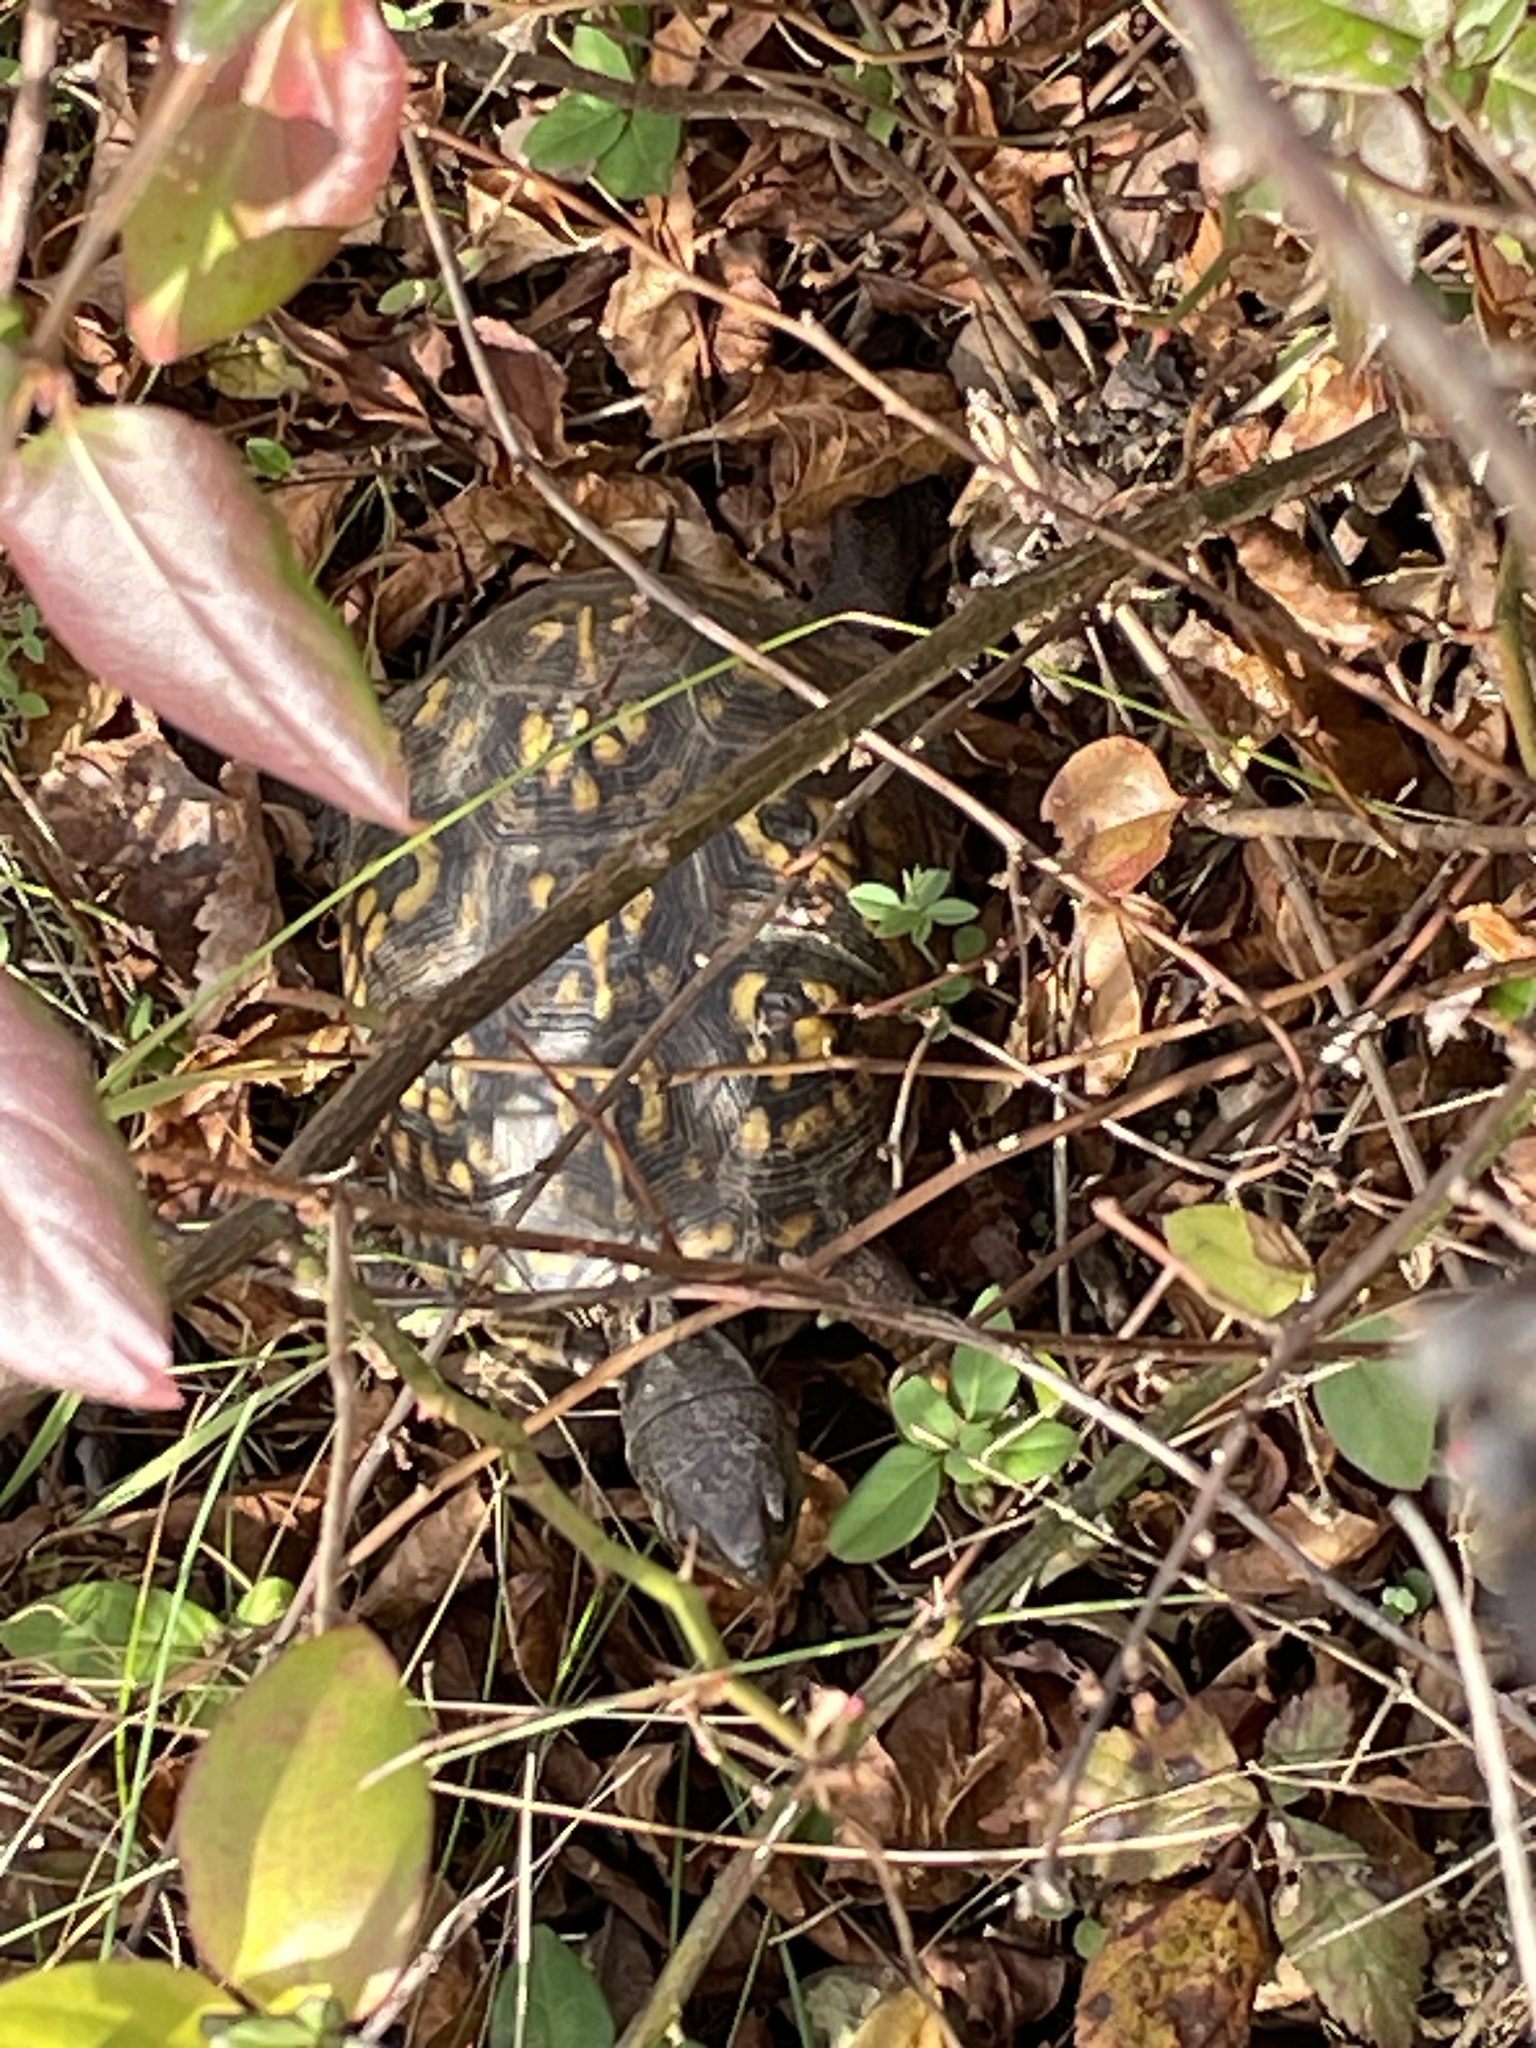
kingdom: Animalia
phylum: Chordata
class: Testudines
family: Emydidae
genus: Terrapene
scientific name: Terrapene carolina
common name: Common box turtle
